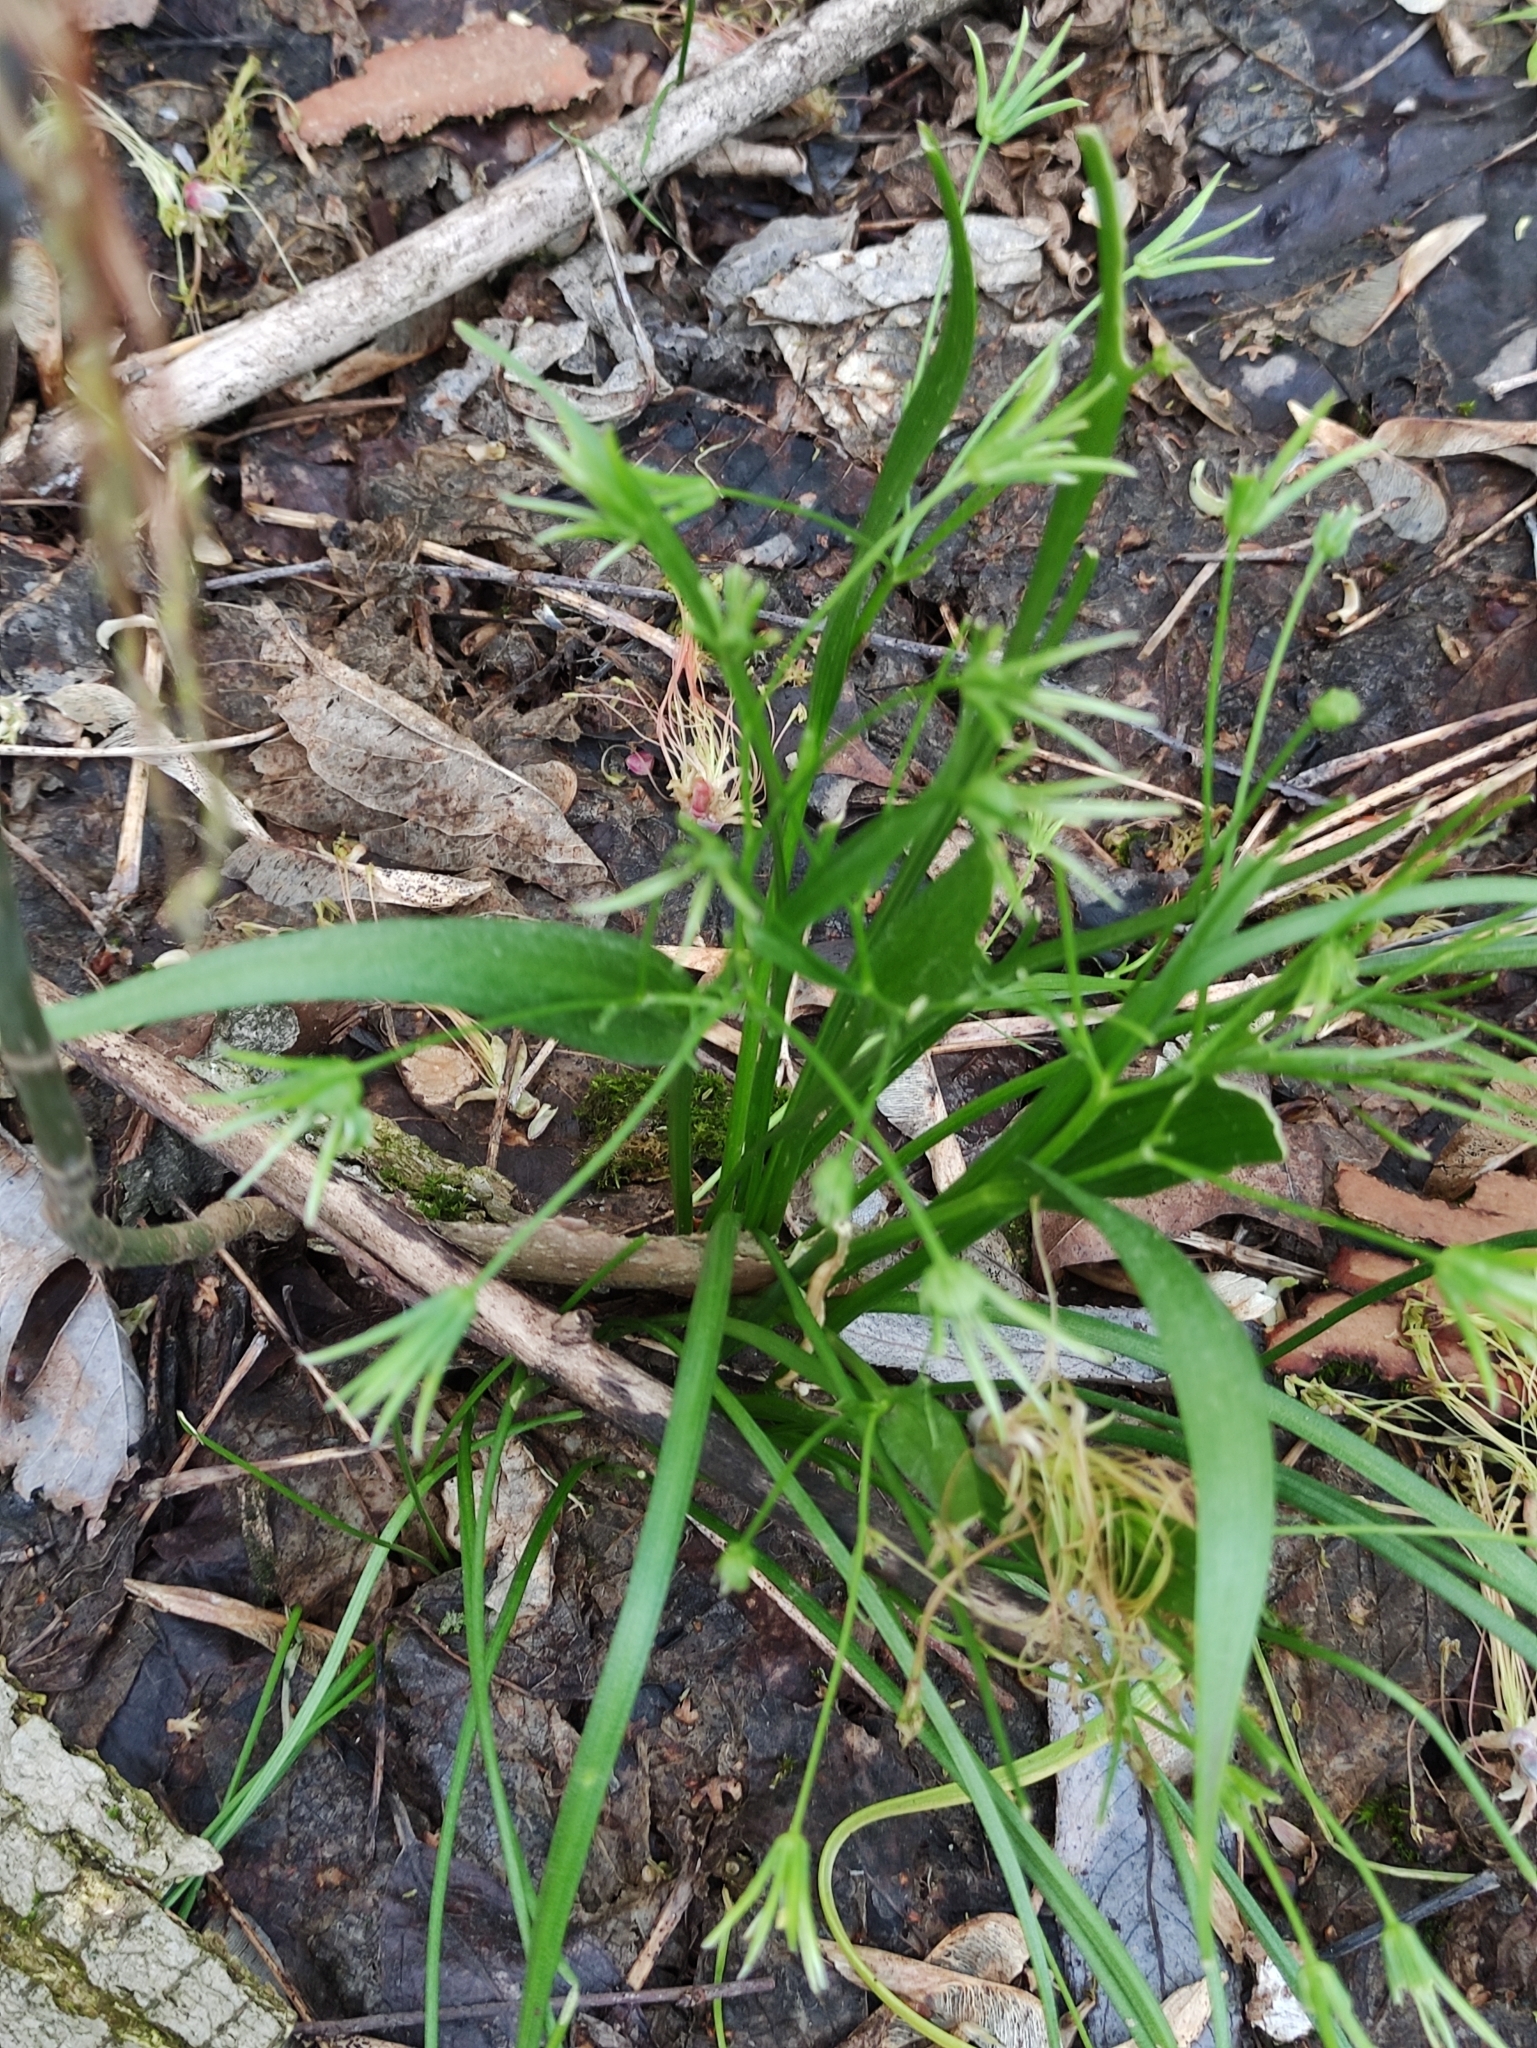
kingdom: Plantae
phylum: Tracheophyta
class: Liliopsida
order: Liliales
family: Liliaceae
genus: Gagea
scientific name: Gagea minima
